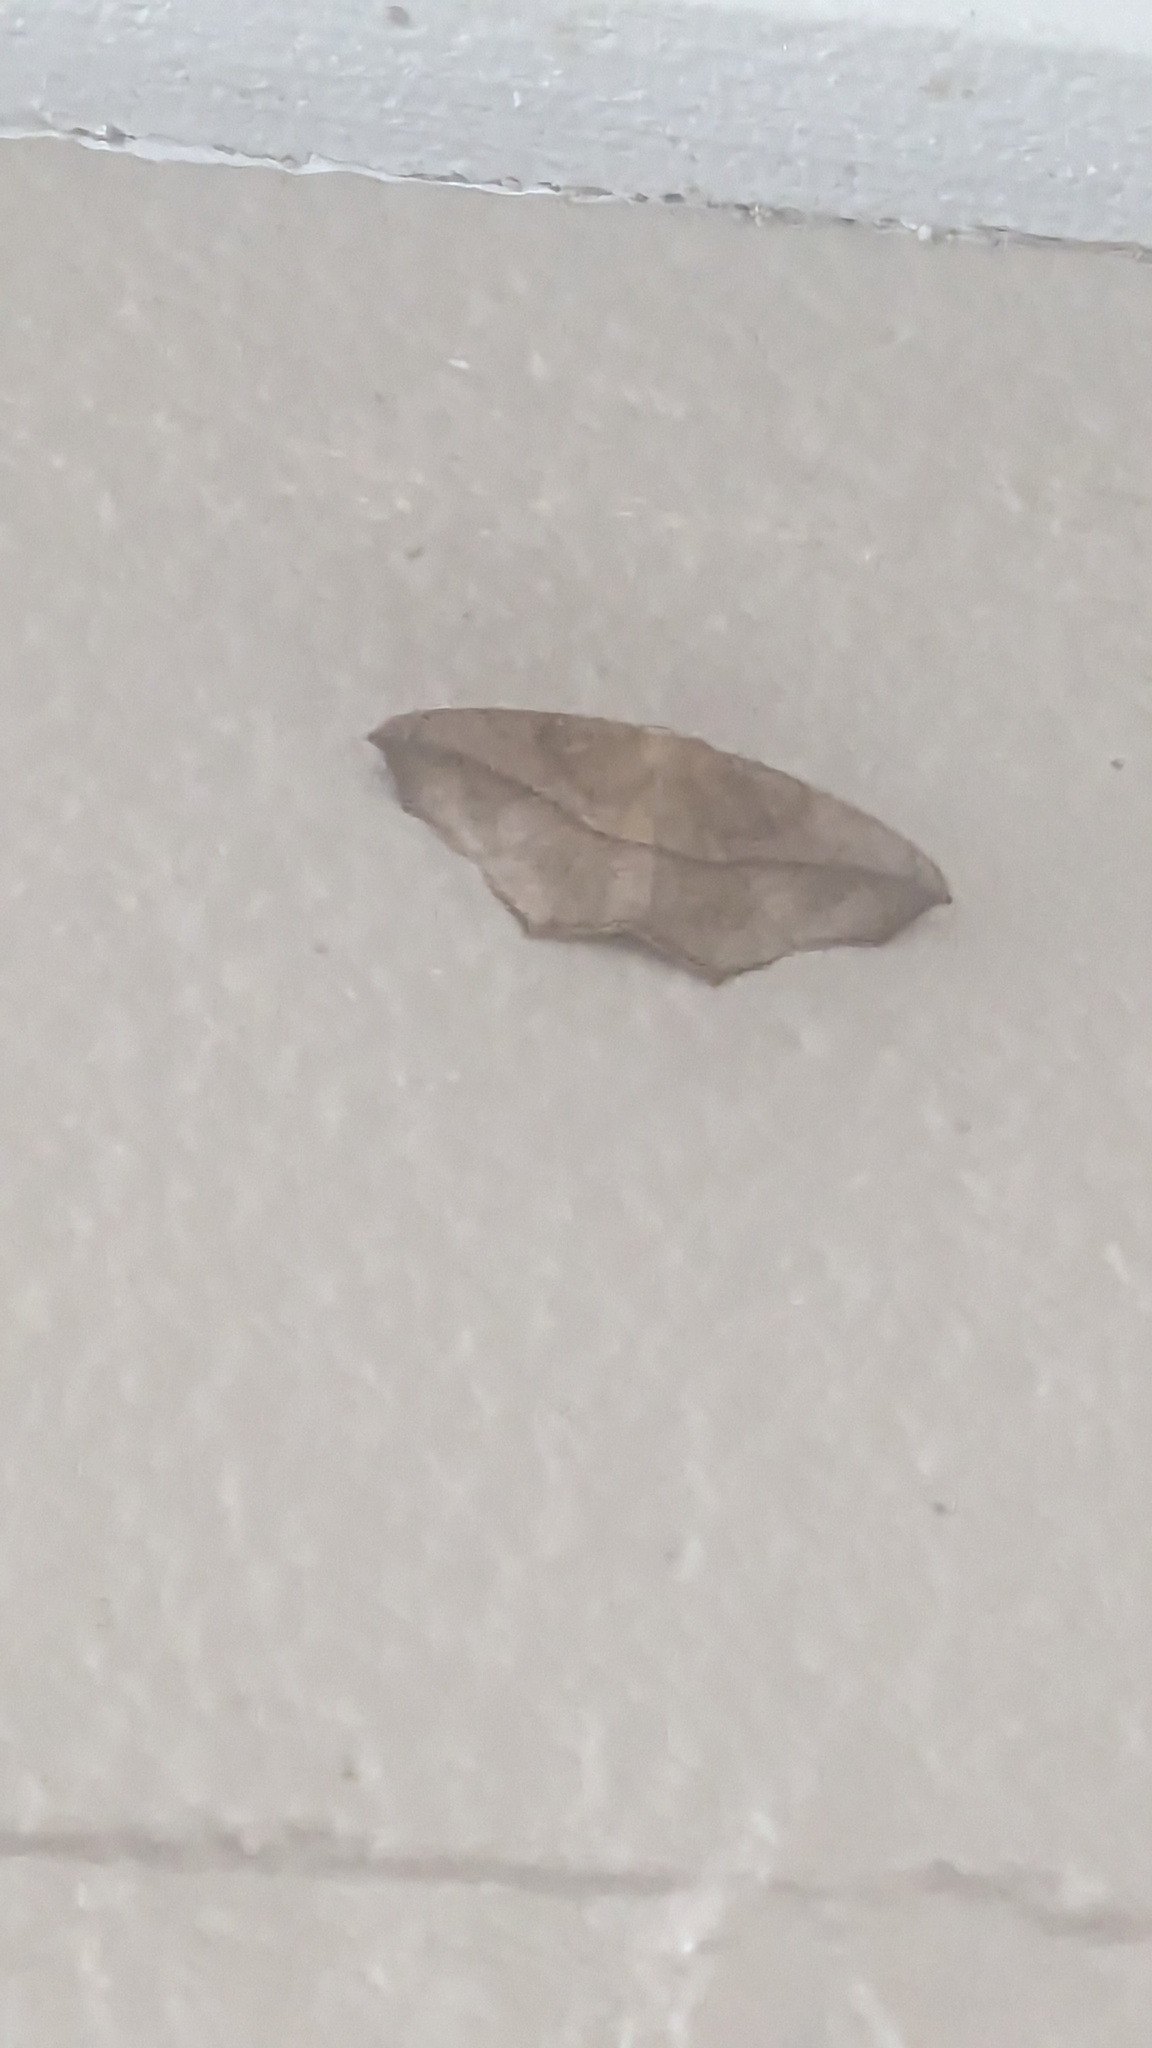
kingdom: Animalia
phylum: Arthropoda
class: Insecta
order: Lepidoptera
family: Geometridae
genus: Prochoerodes
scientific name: Prochoerodes lineola
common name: Large maple spanworm
